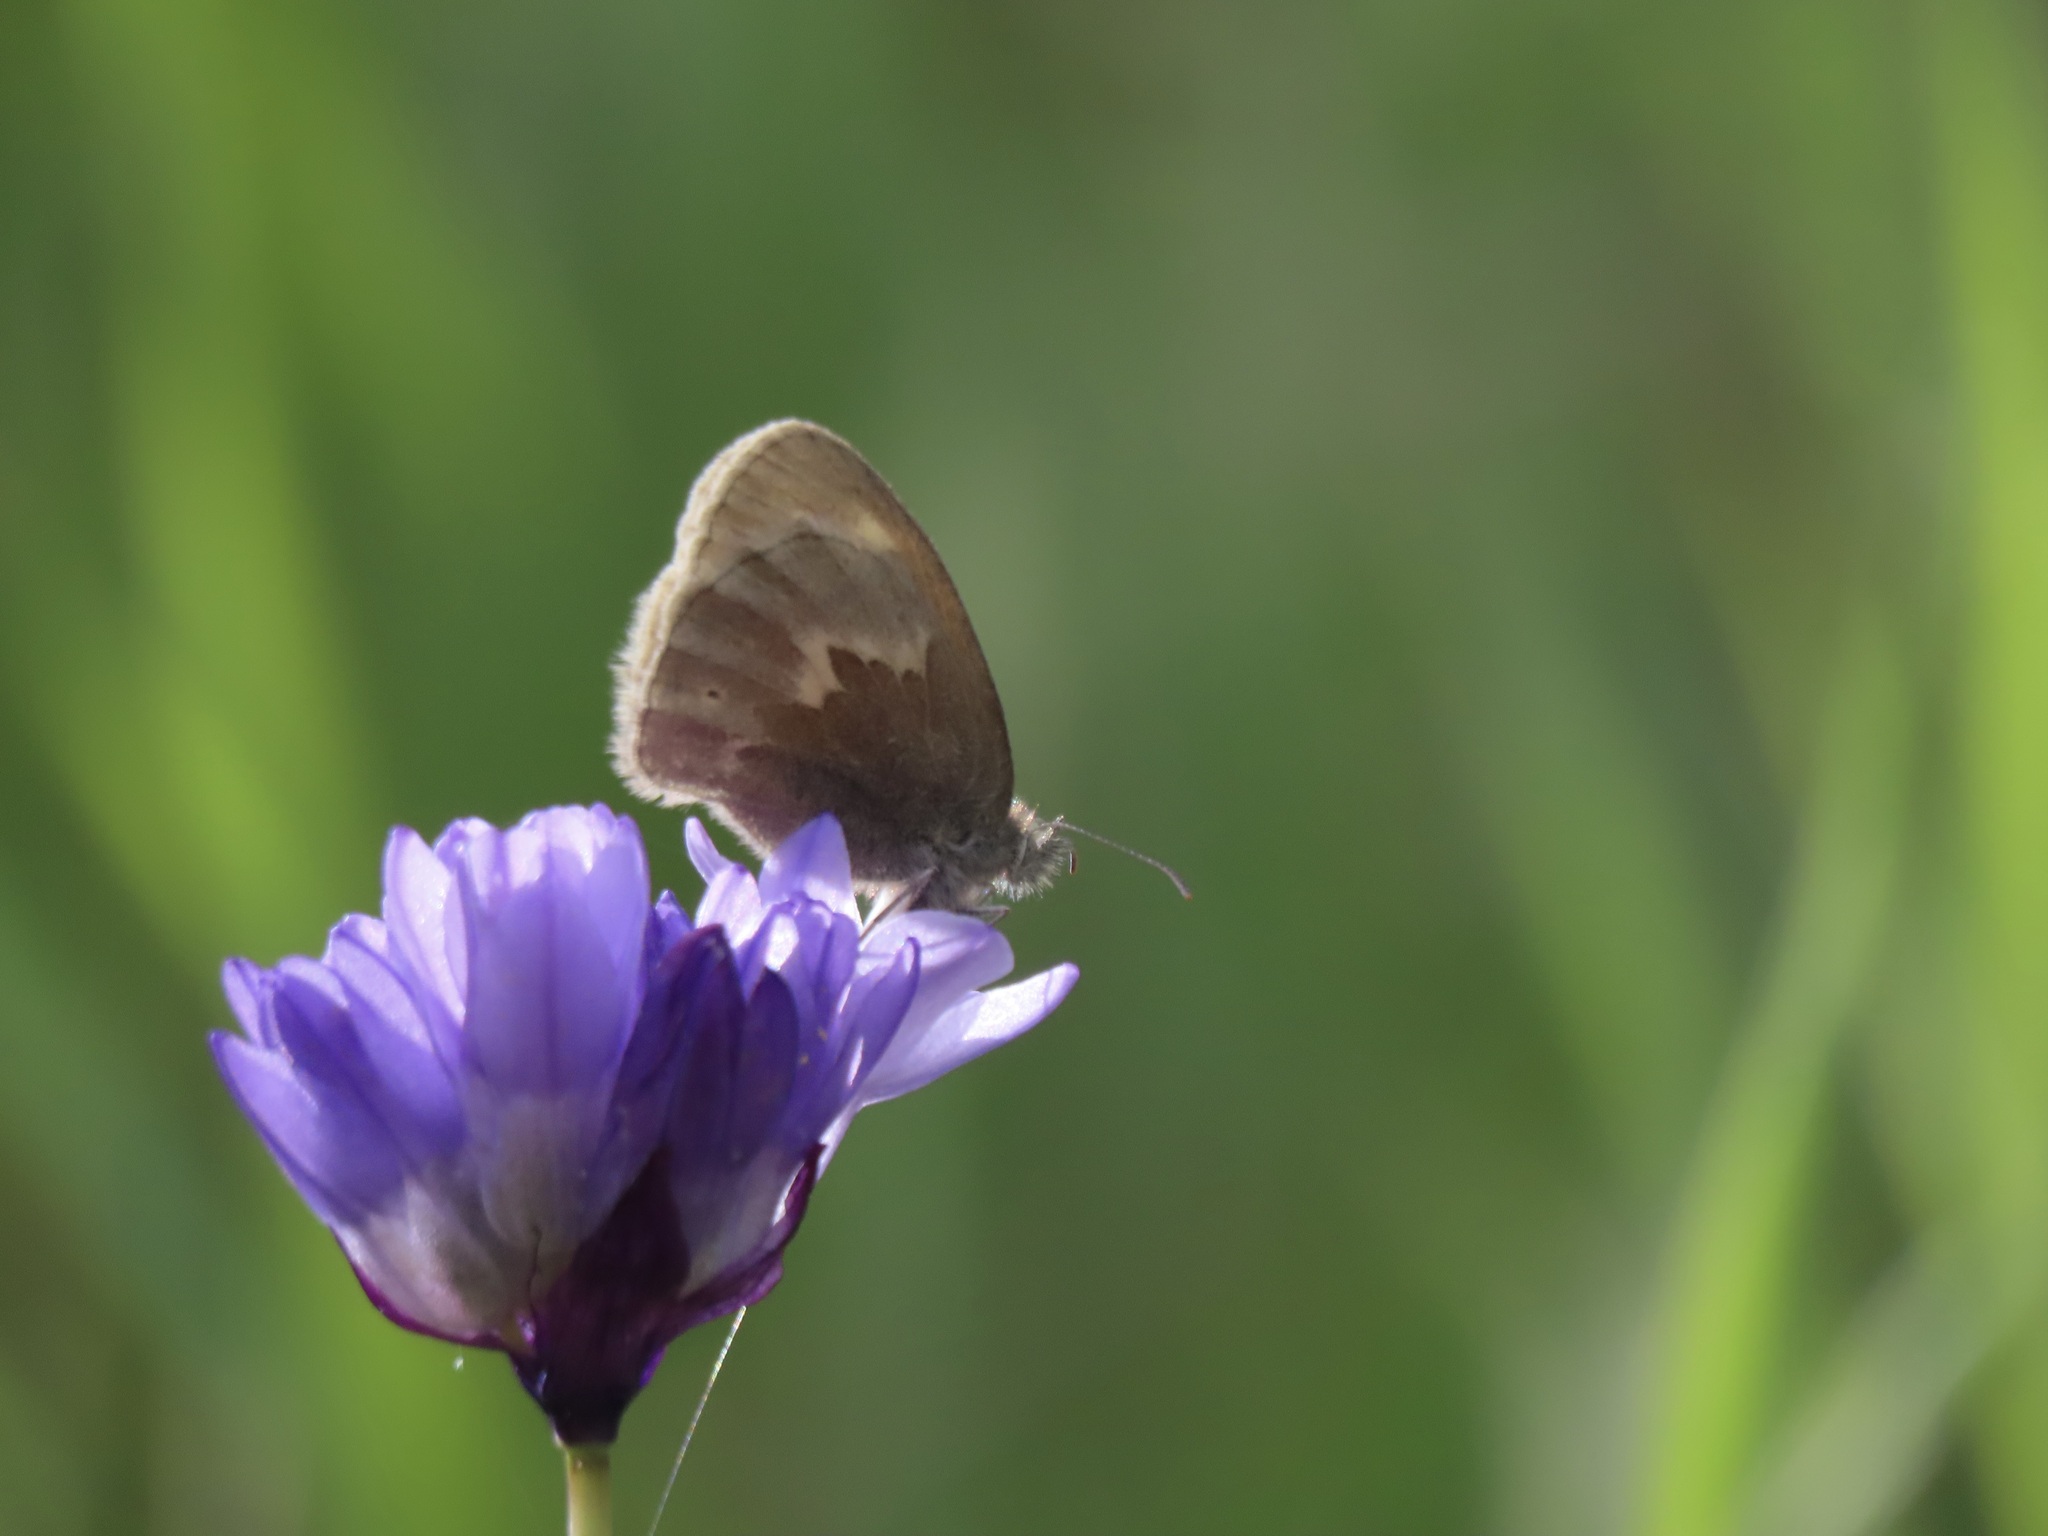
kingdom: Animalia
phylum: Arthropoda
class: Insecta
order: Lepidoptera
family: Nymphalidae
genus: Coenonympha
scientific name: Coenonympha california
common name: Common ringlet
